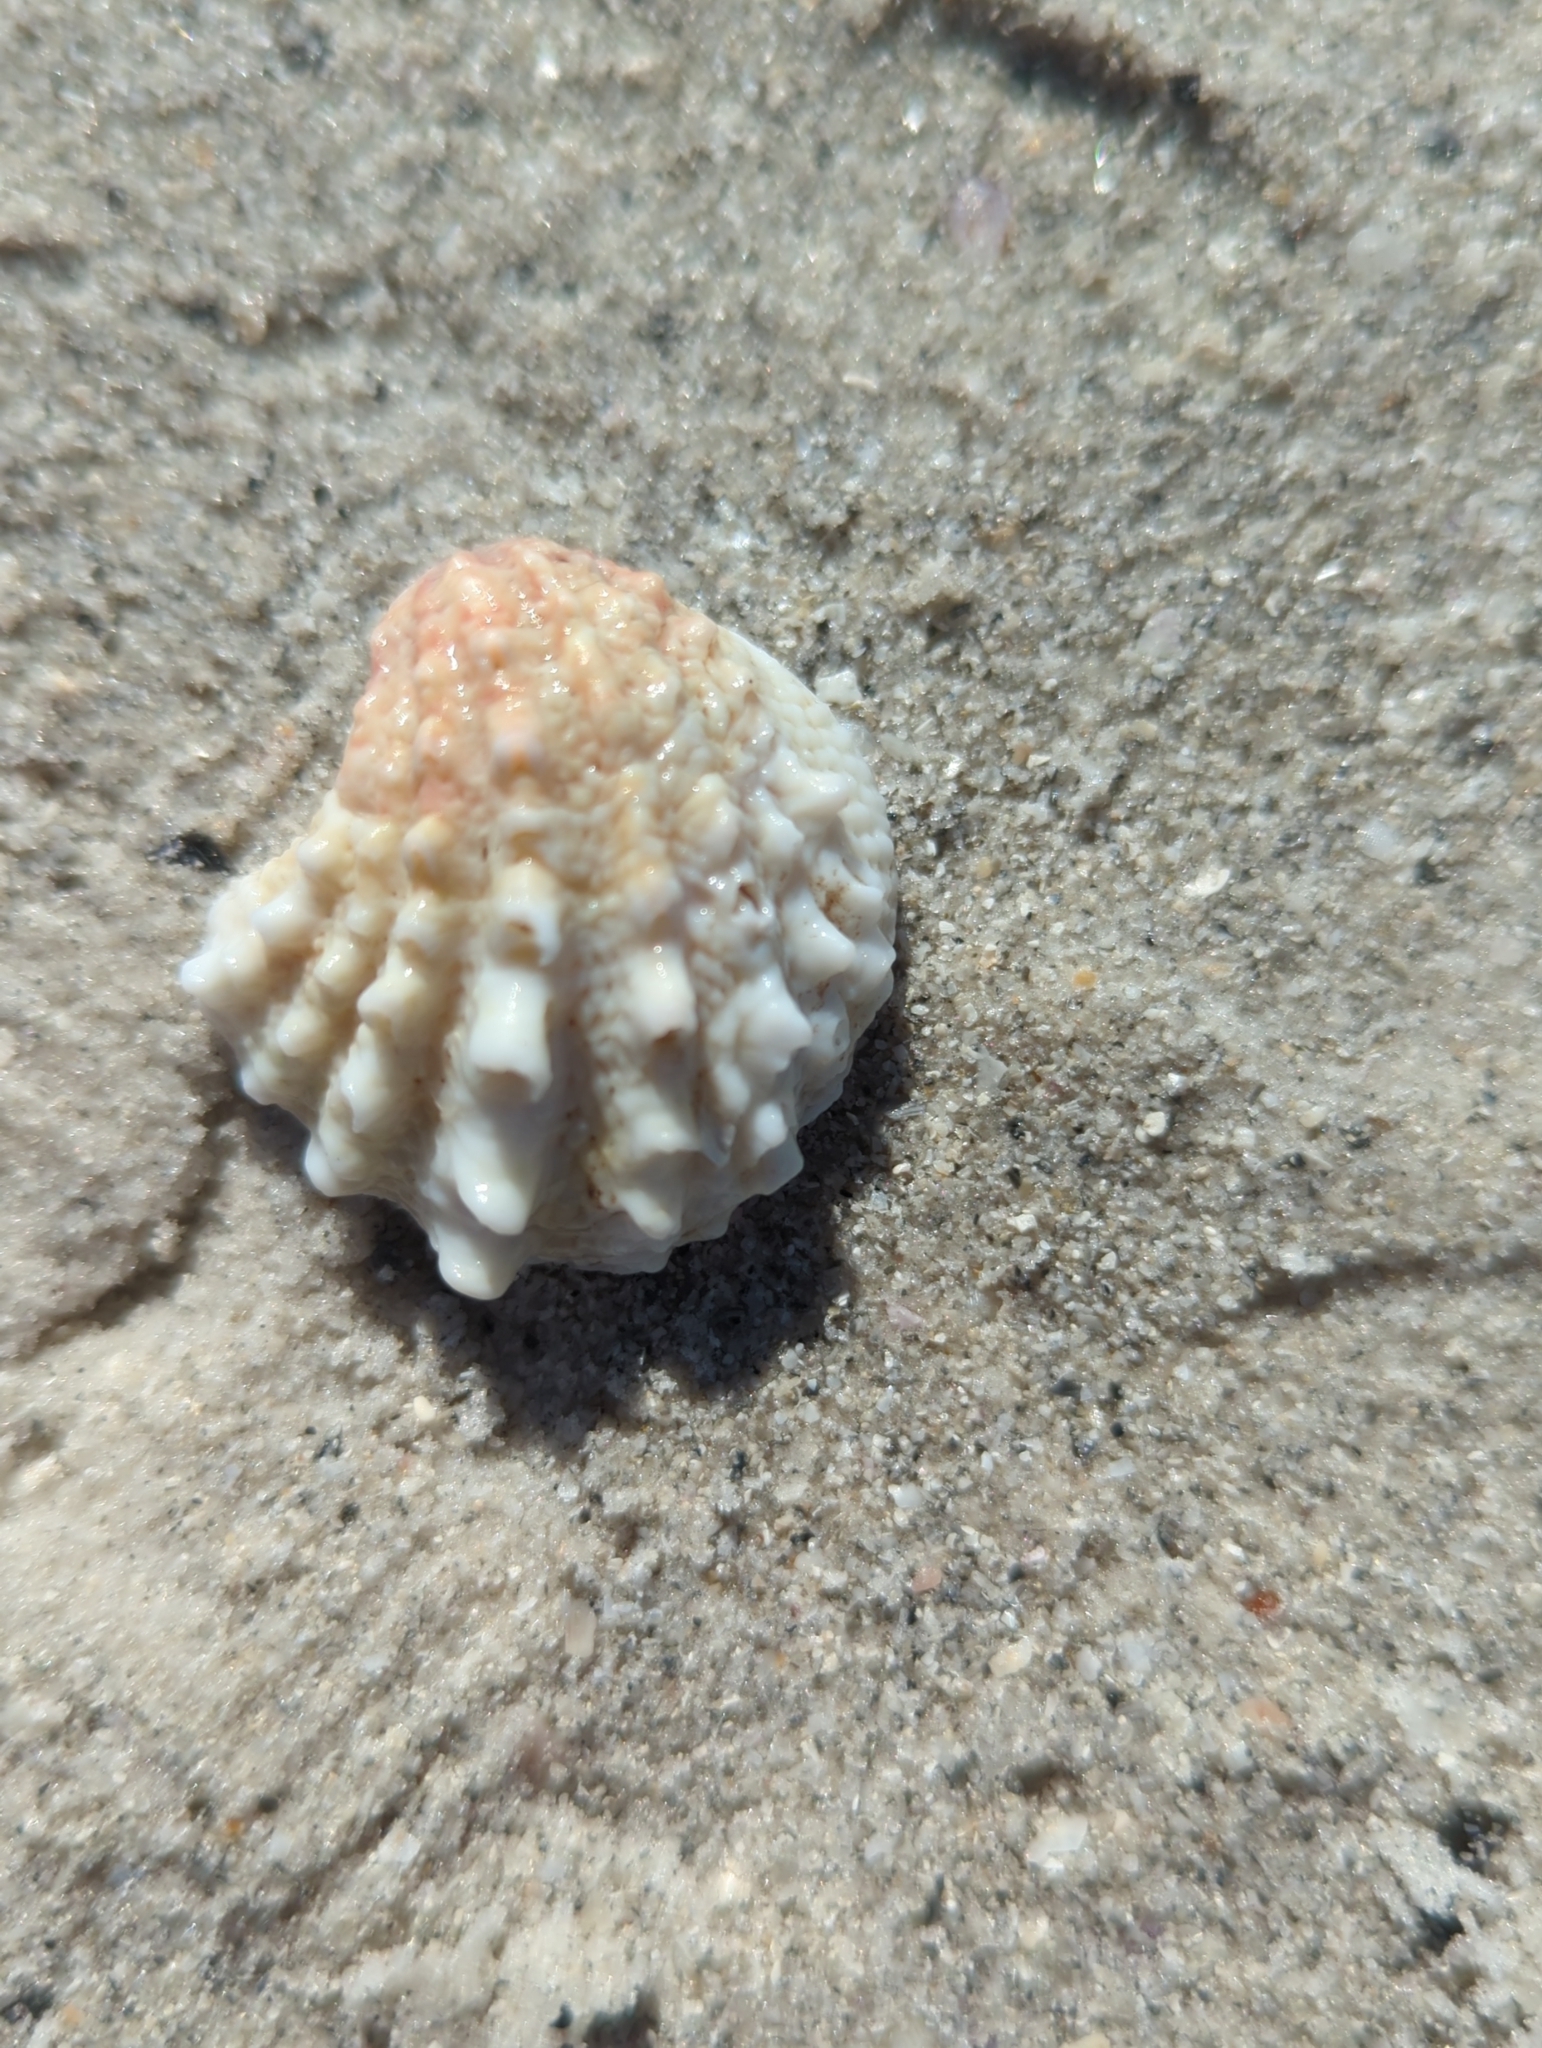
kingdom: Animalia
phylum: Mollusca
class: Bivalvia
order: Venerida
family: Chamidae
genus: Arcinella
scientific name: Arcinella cornuta
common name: Florida spiny jewel box
